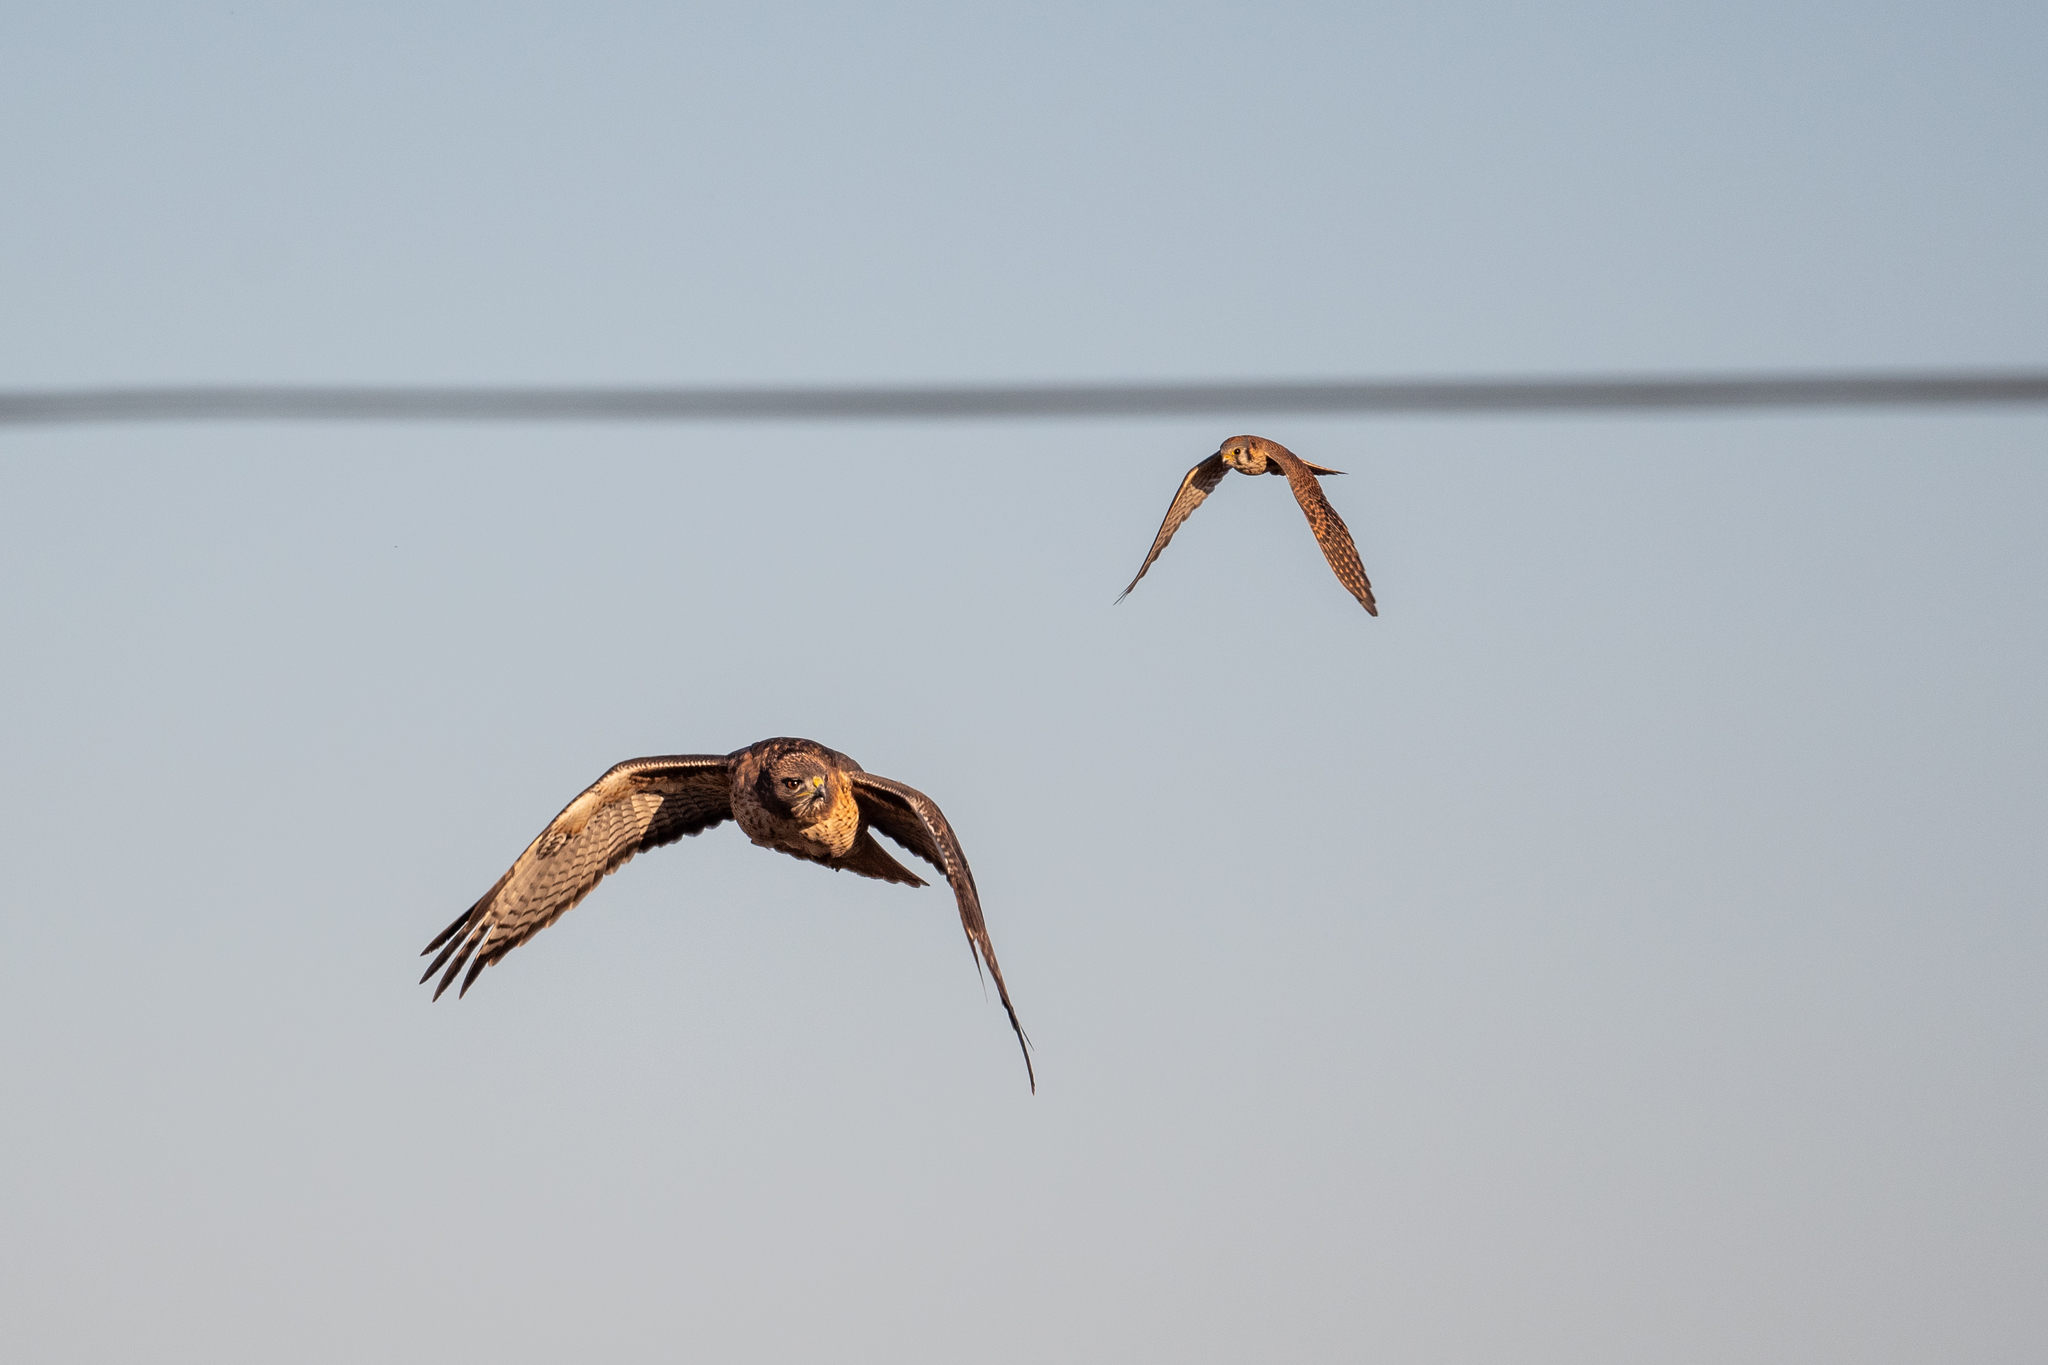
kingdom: Animalia
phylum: Chordata
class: Aves
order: Falconiformes
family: Falconidae
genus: Falco
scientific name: Falco sparverius
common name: American kestrel
